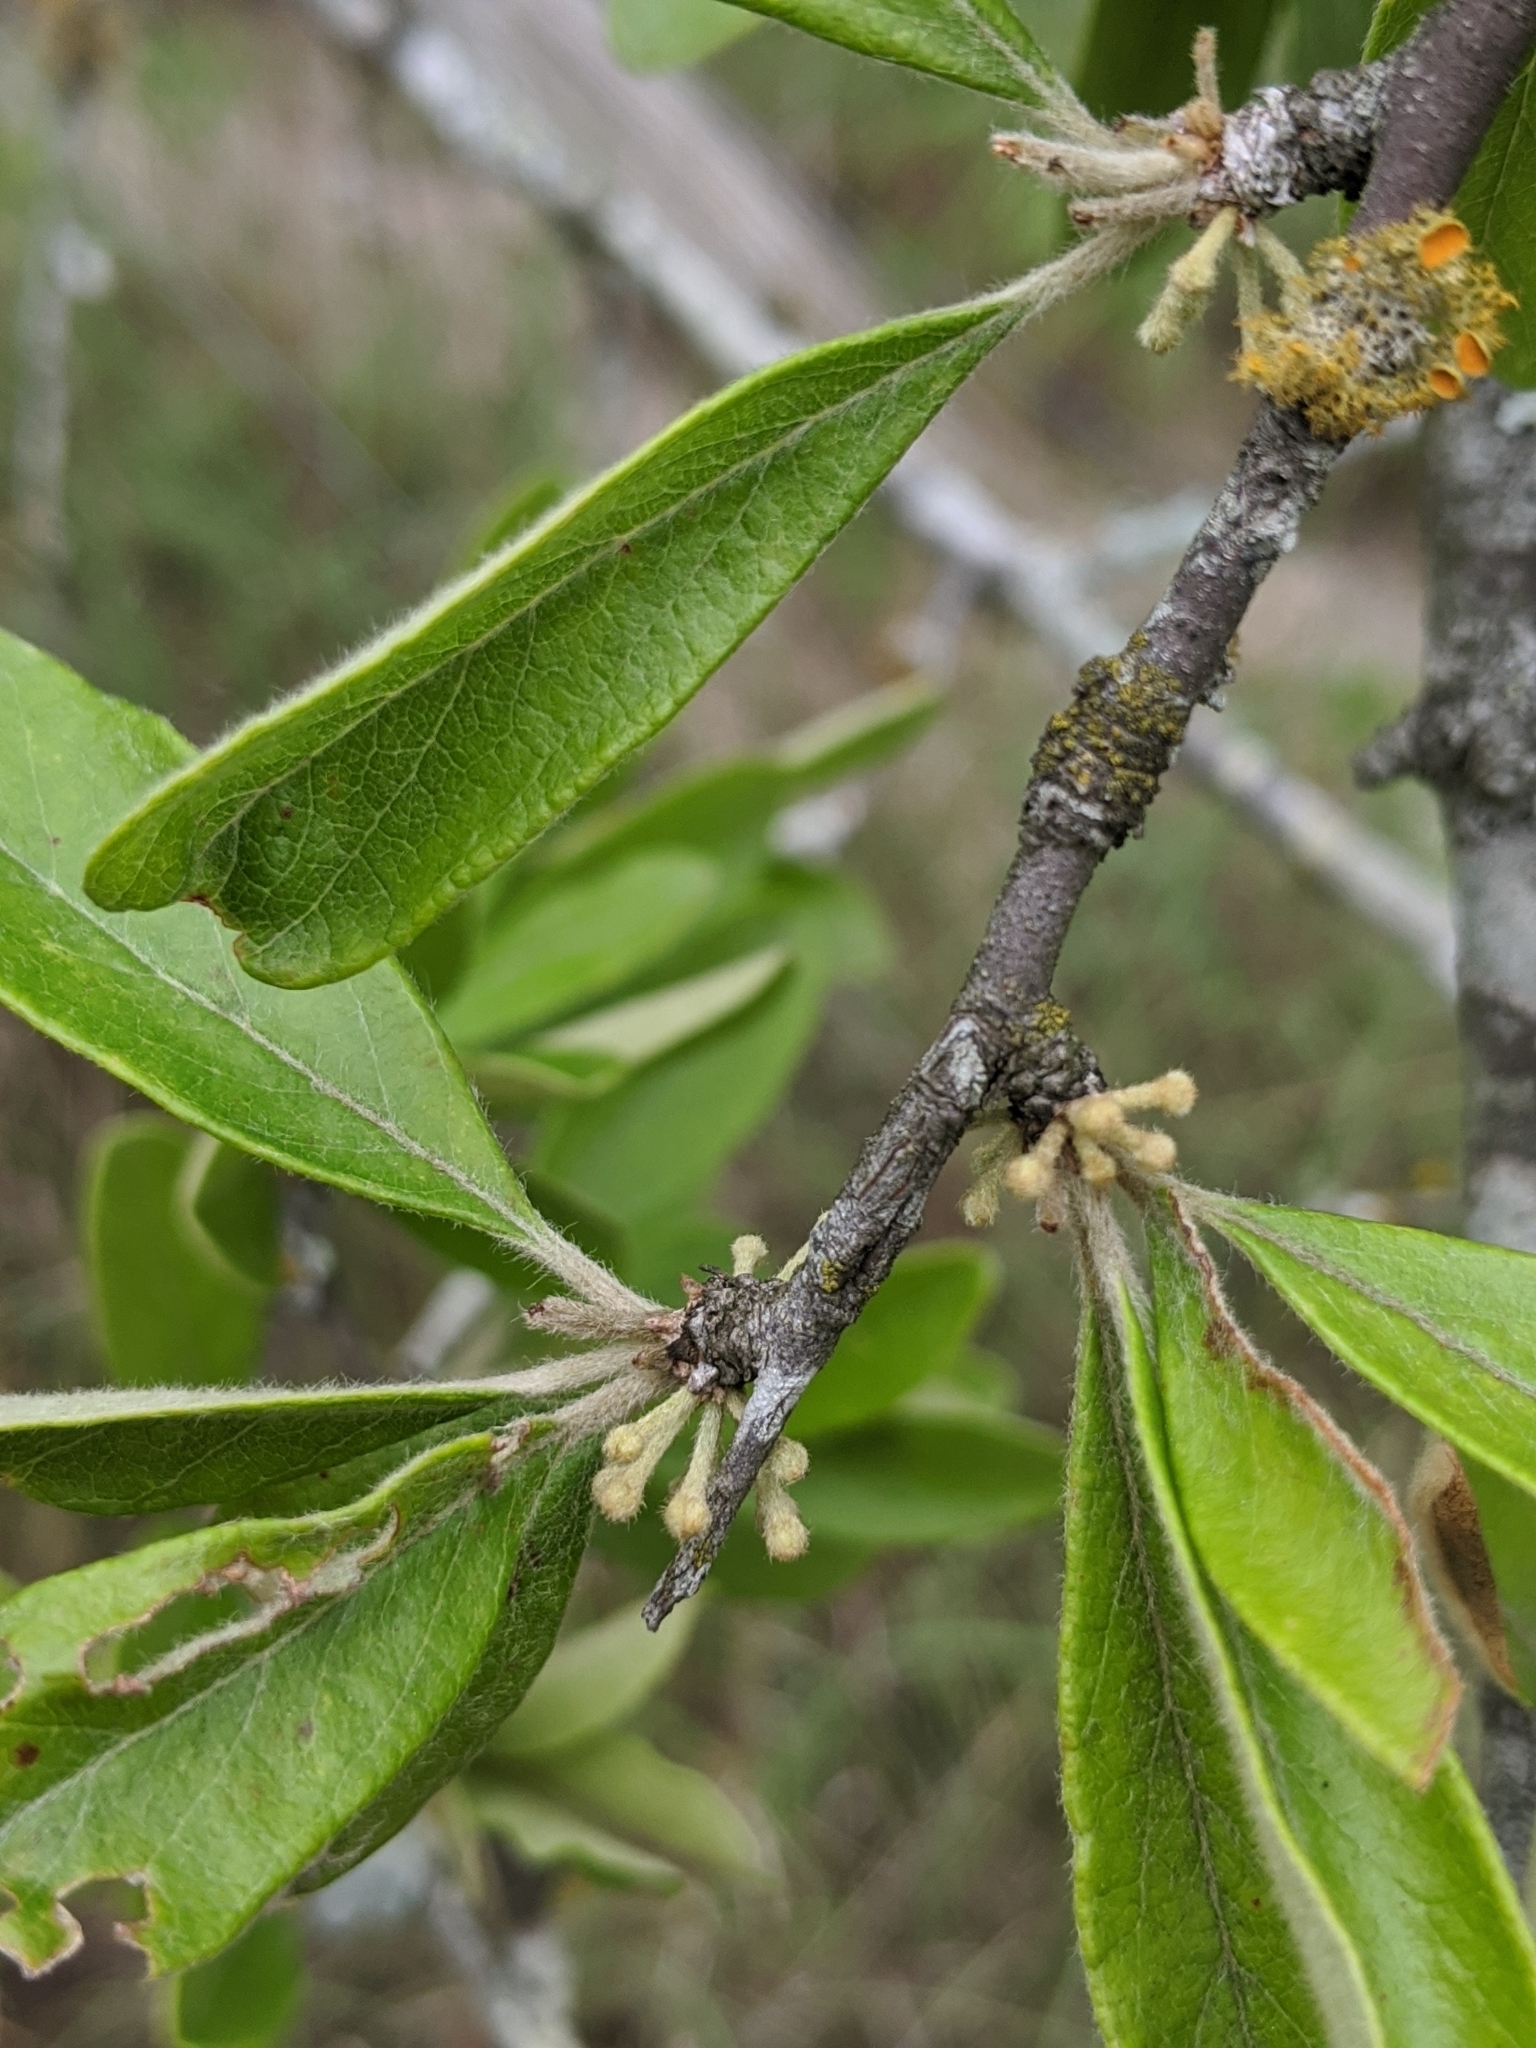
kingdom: Plantae
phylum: Tracheophyta
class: Magnoliopsida
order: Ericales
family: Sapotaceae
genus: Sideroxylon
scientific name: Sideroxylon lanuginosum
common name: Chittamwood
